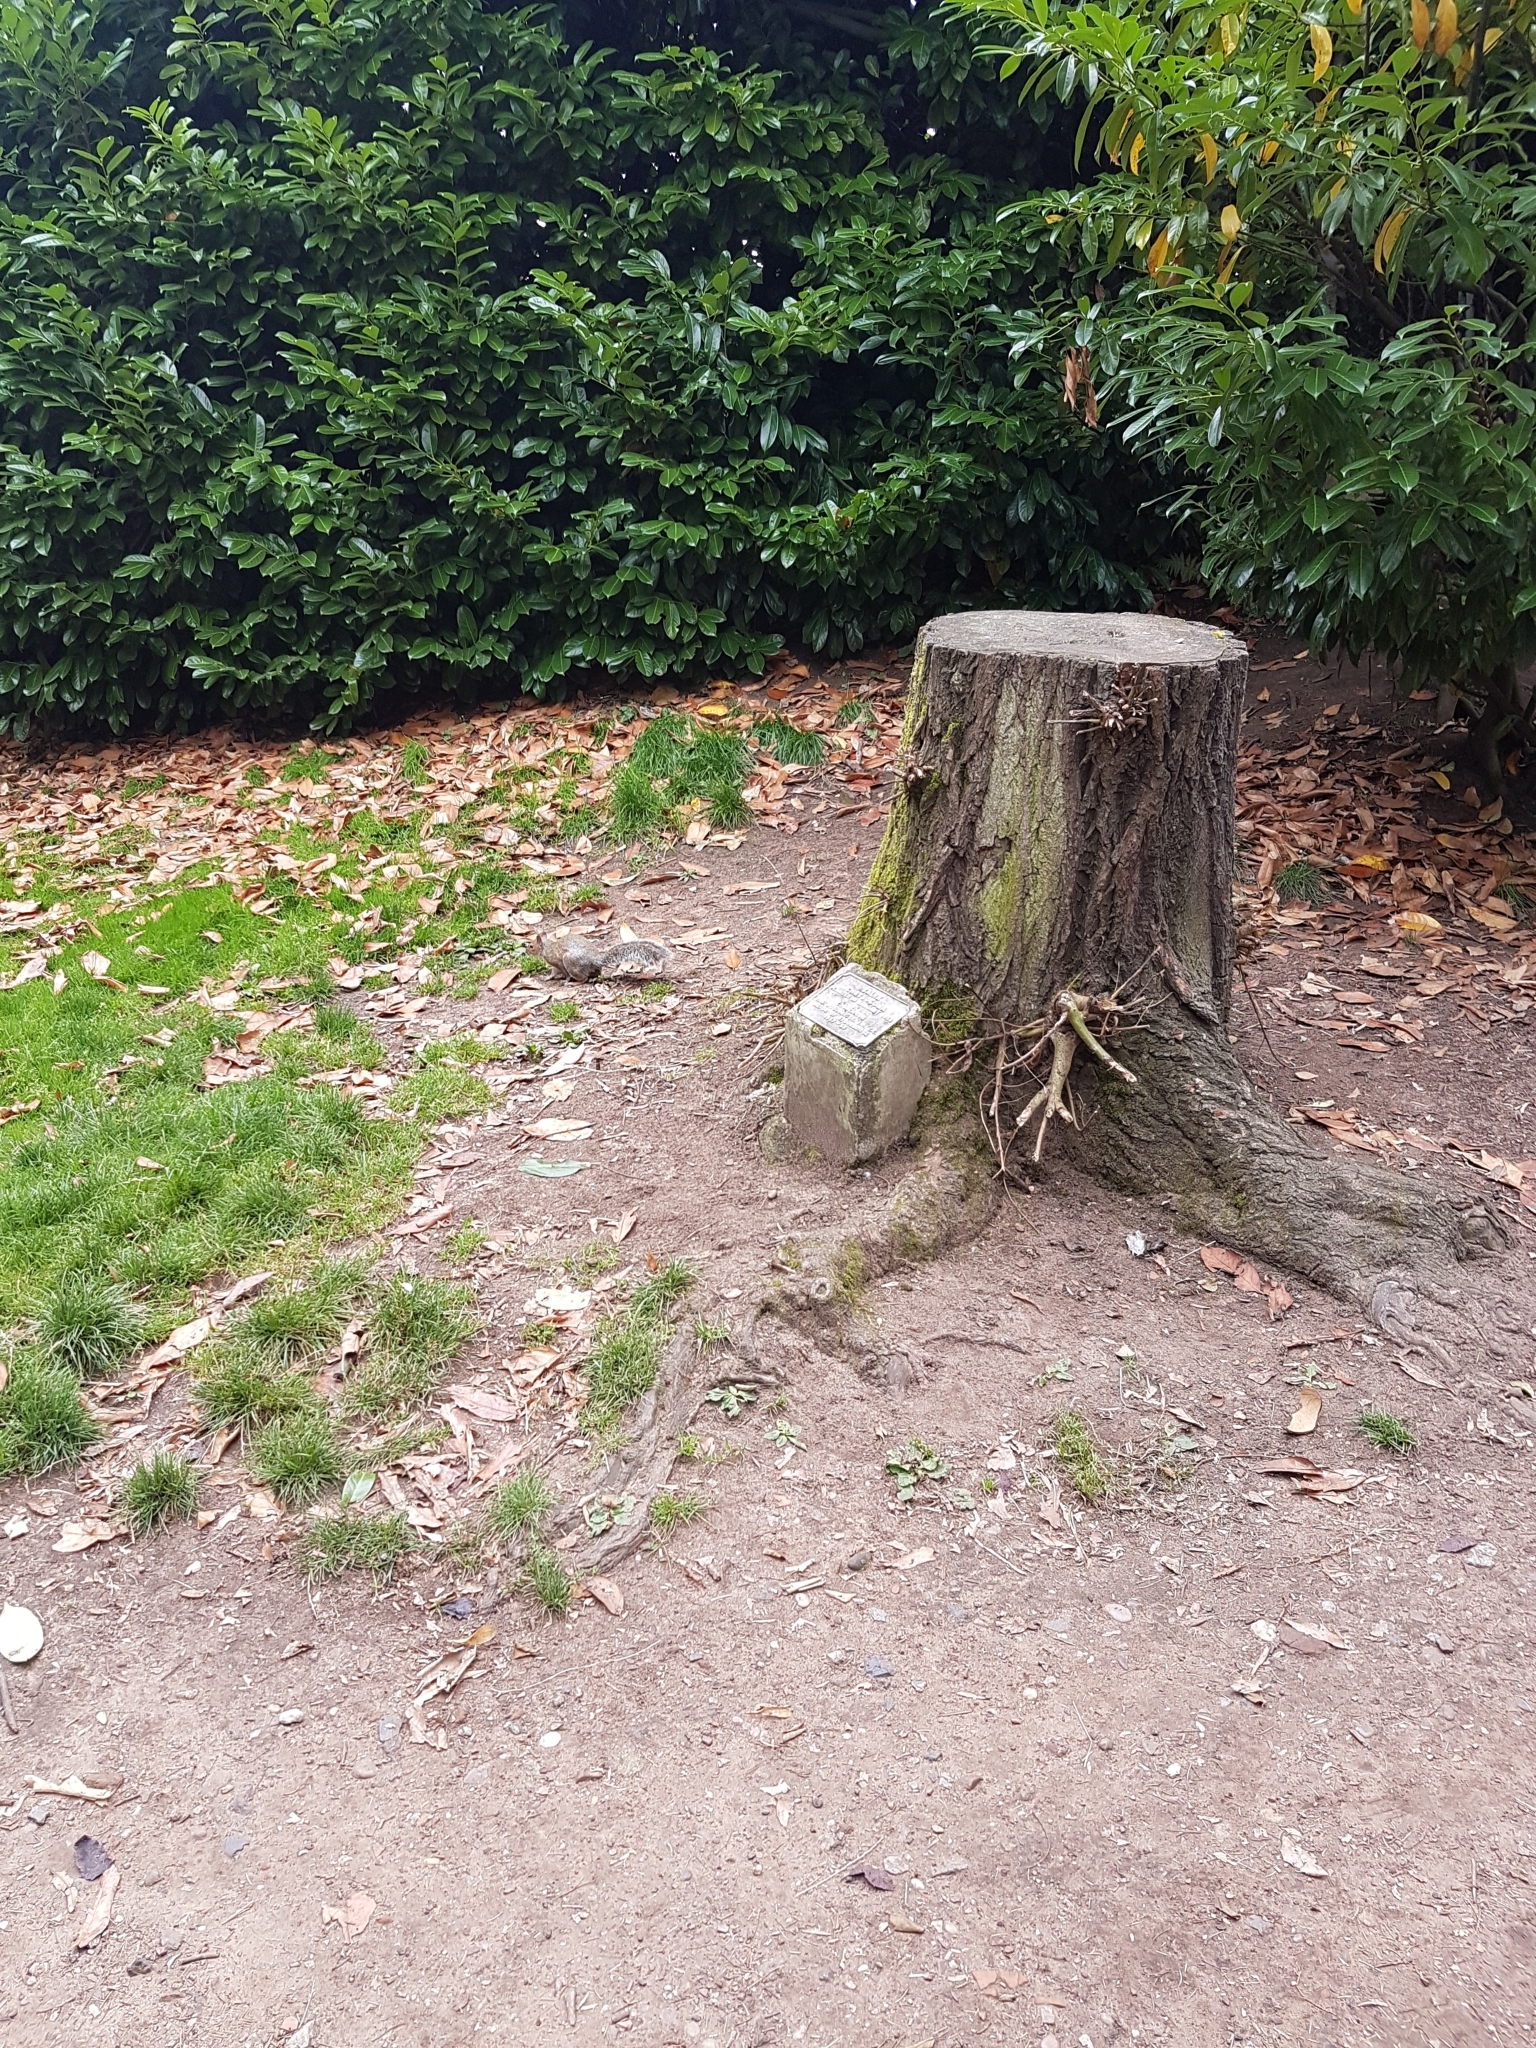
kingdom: Animalia
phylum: Chordata
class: Mammalia
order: Rodentia
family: Sciuridae
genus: Sciurus
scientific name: Sciurus carolinensis
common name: Eastern gray squirrel
